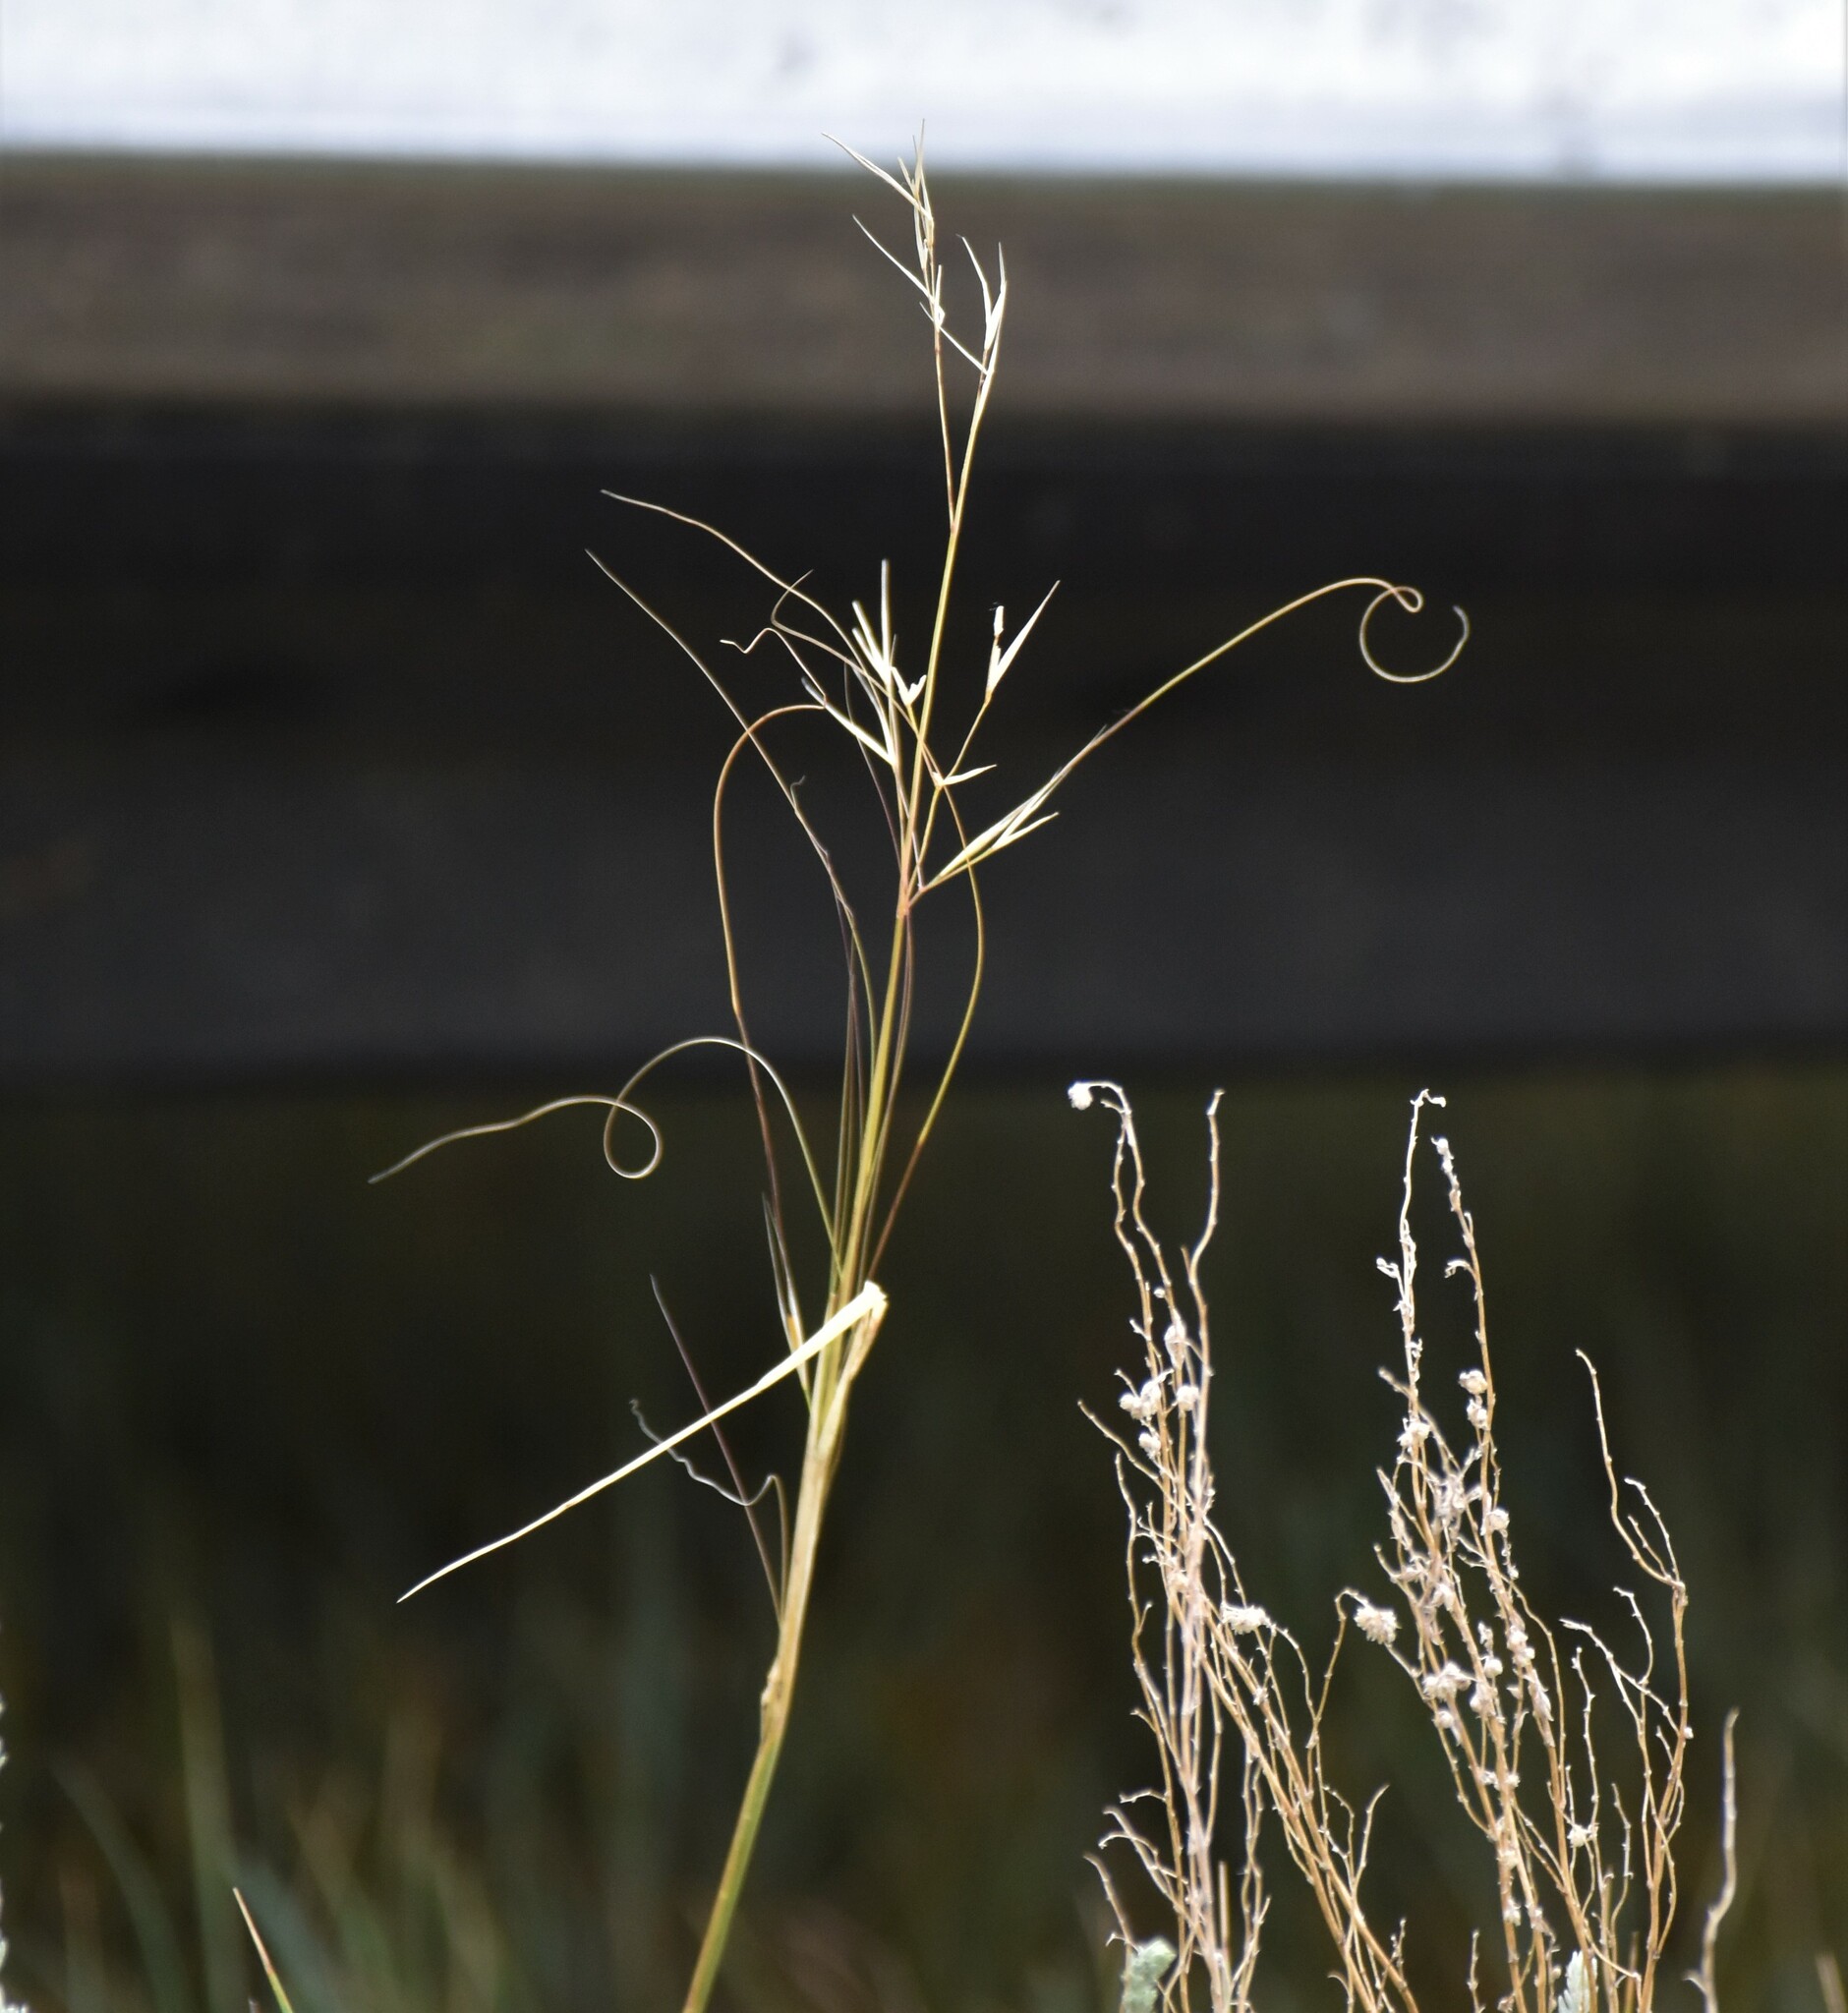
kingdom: Plantae
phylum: Tracheophyta
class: Liliopsida
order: Poales
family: Poaceae
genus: Hesperostipa
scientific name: Hesperostipa comata
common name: Needle-and-thread grass
